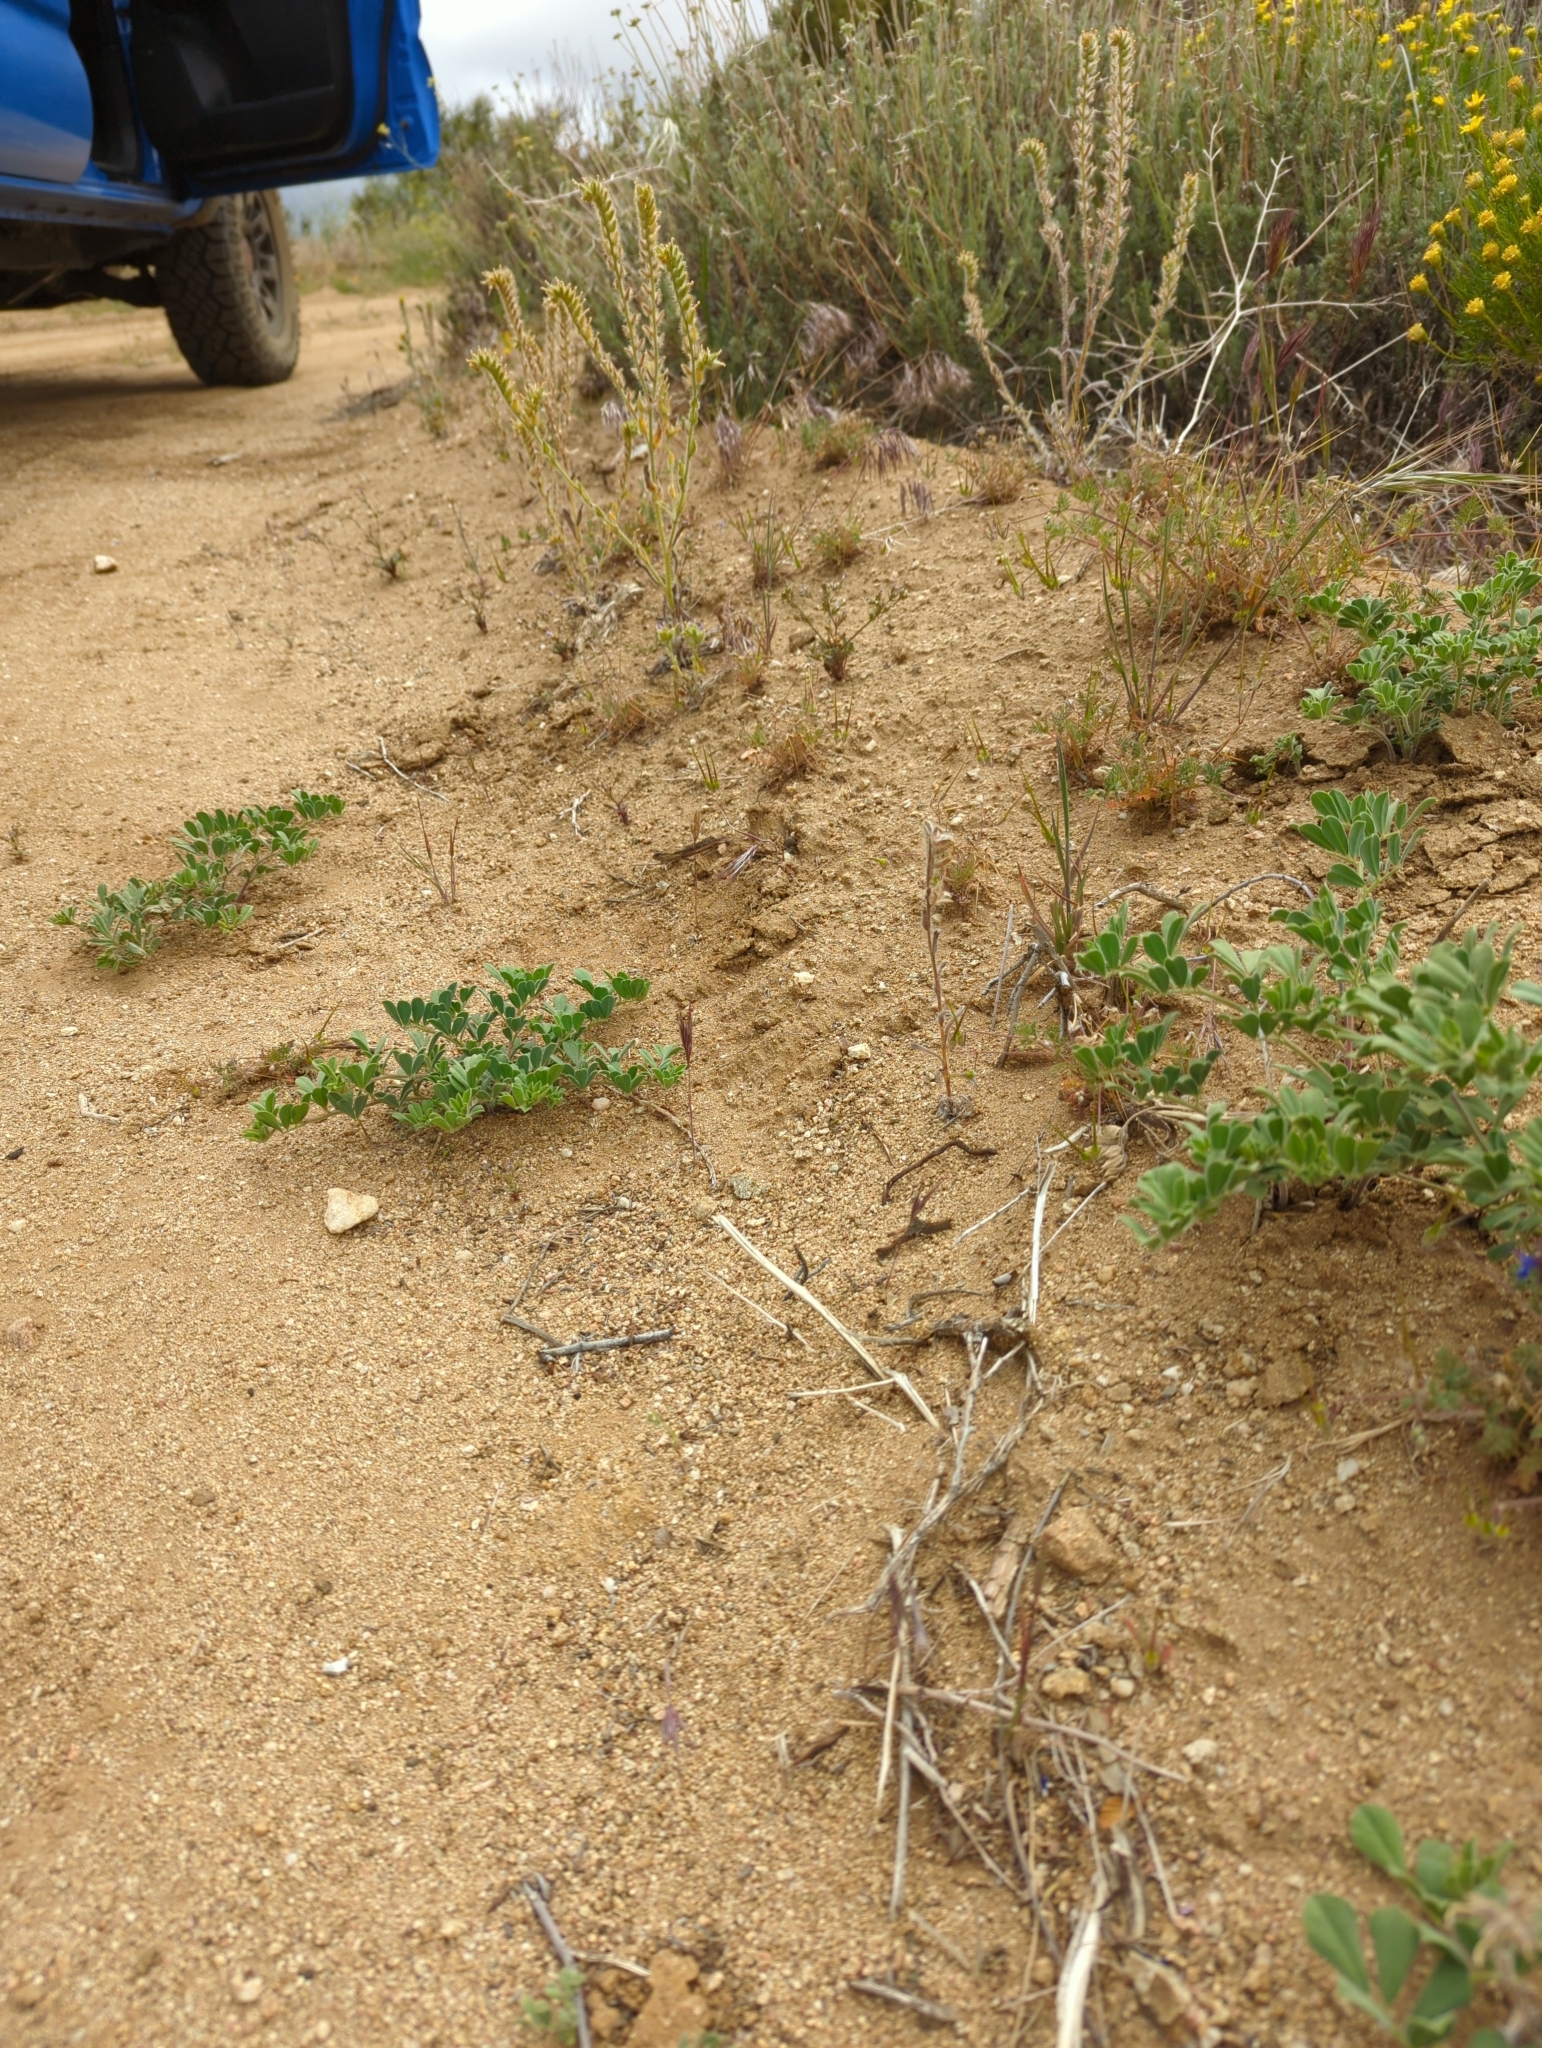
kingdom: Plantae
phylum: Tracheophyta
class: Magnoliopsida
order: Fabales
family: Fabaceae
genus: Acmispon
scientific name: Acmispon grandiflorus
